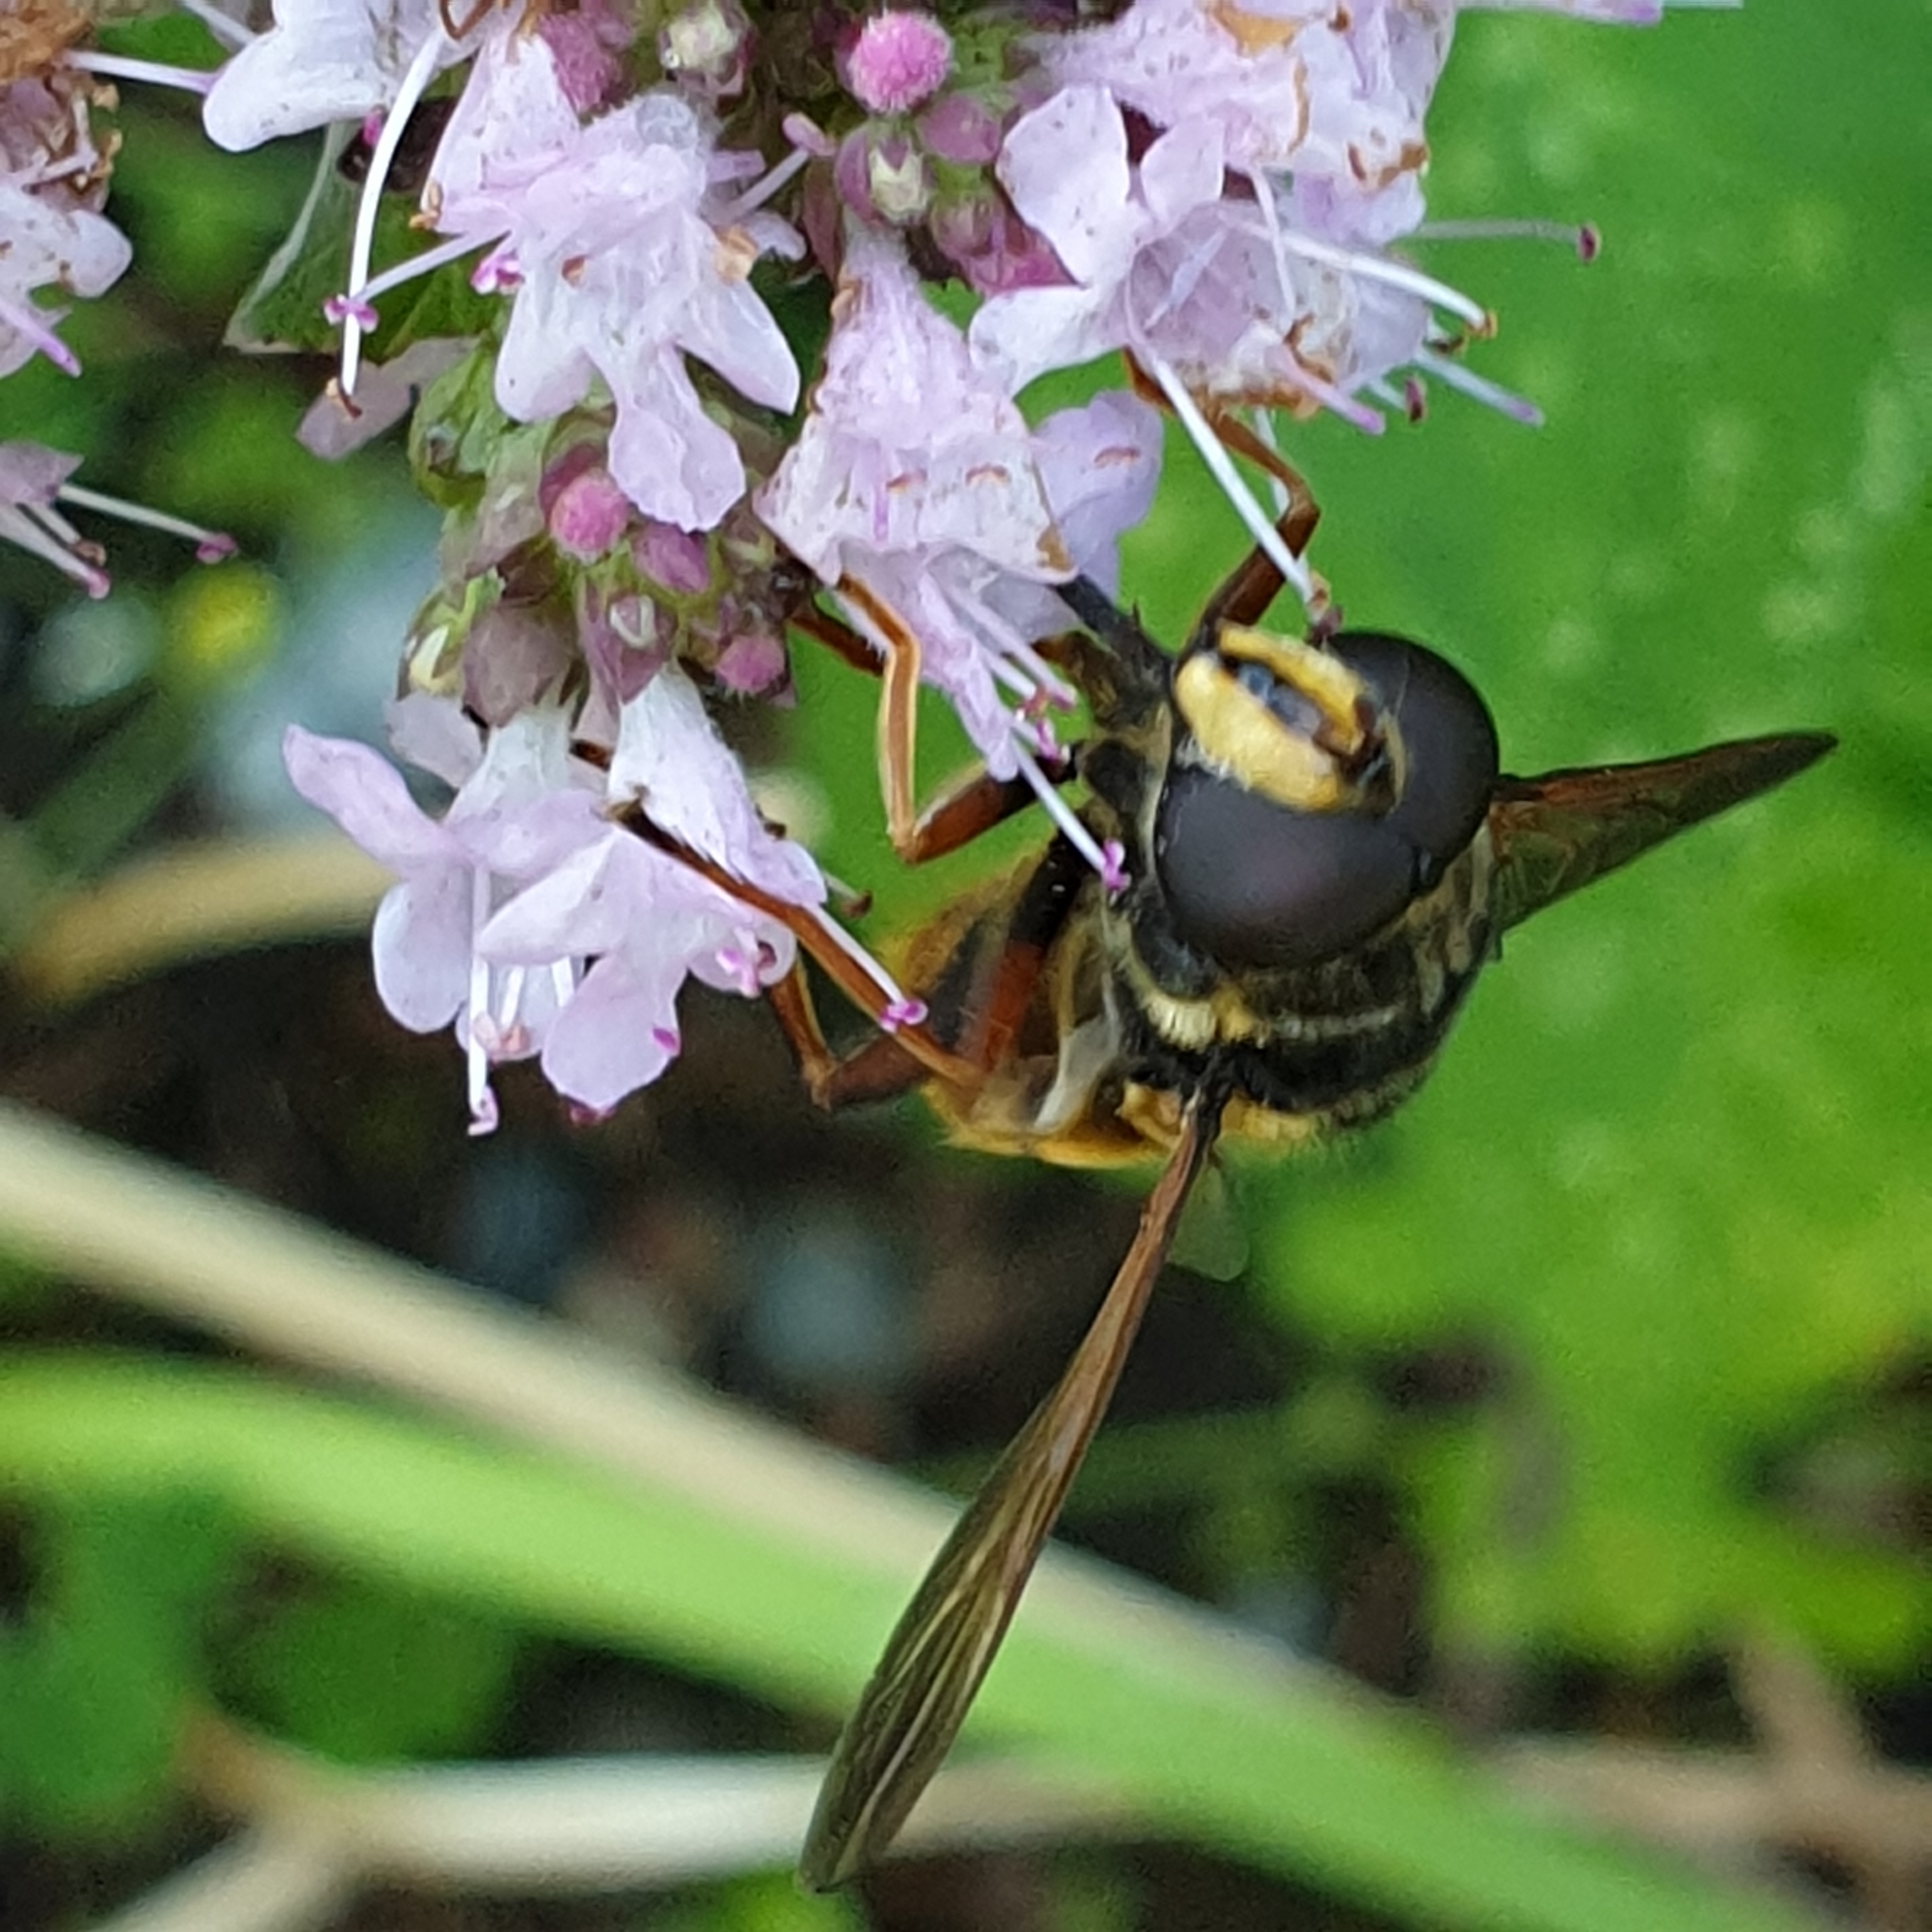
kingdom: Animalia
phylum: Arthropoda
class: Insecta
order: Diptera
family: Syrphidae
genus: Sericomyia
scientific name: Sericomyia silentis
